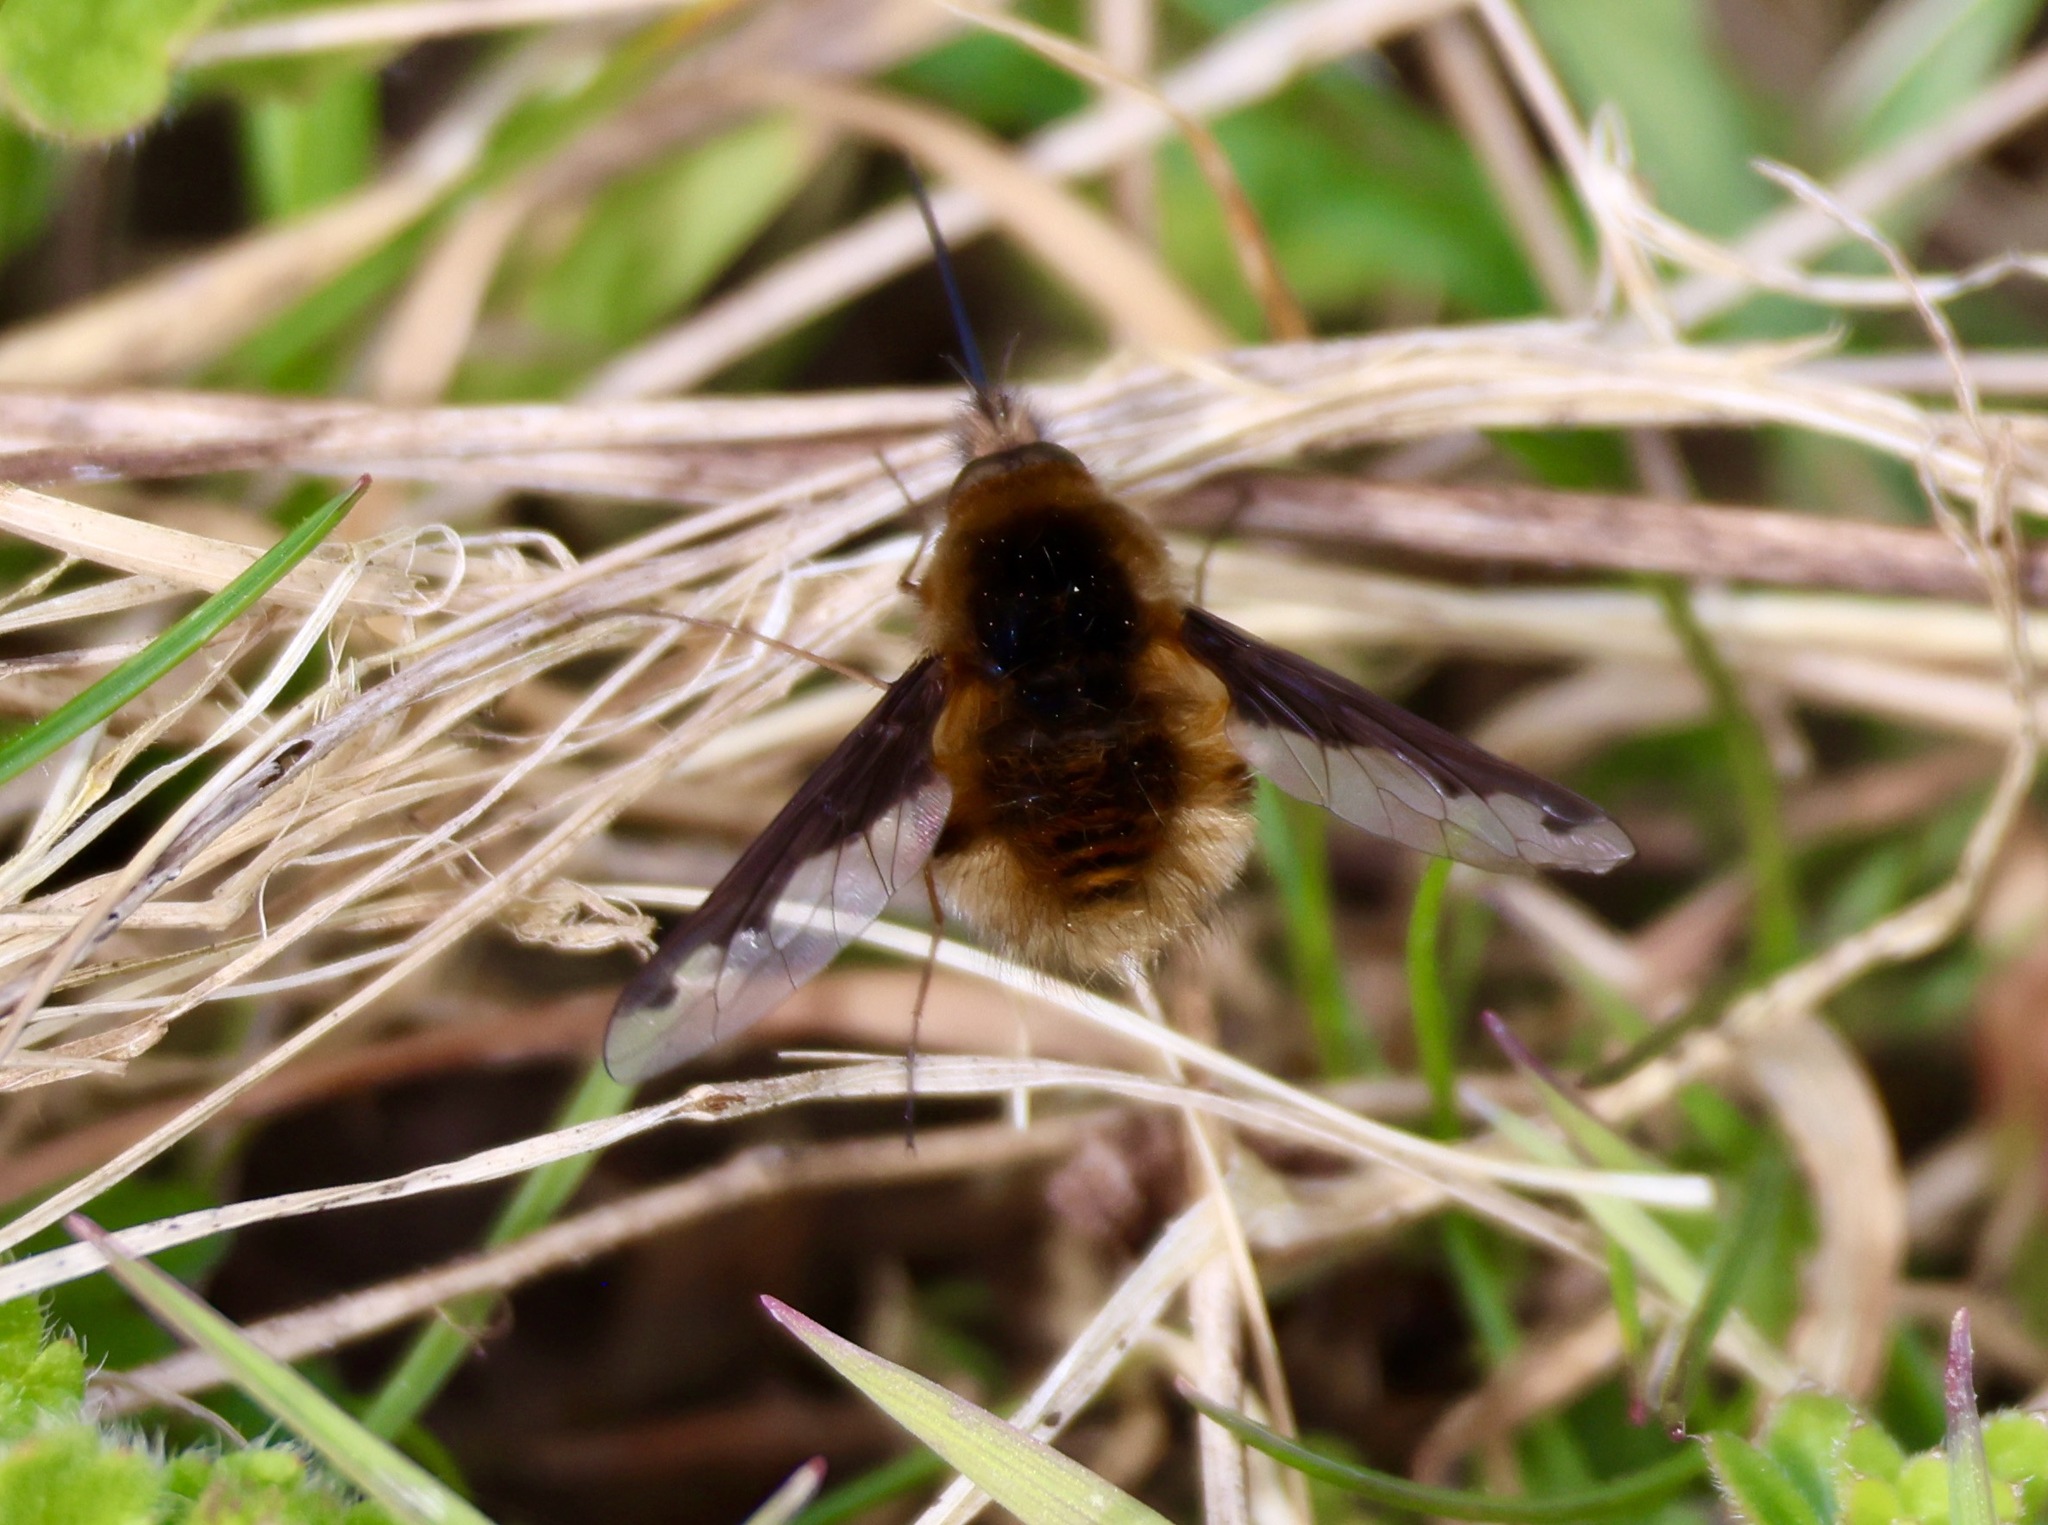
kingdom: Animalia
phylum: Arthropoda
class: Insecta
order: Diptera
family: Bombyliidae
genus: Bombylius
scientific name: Bombylius major
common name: Bee fly
